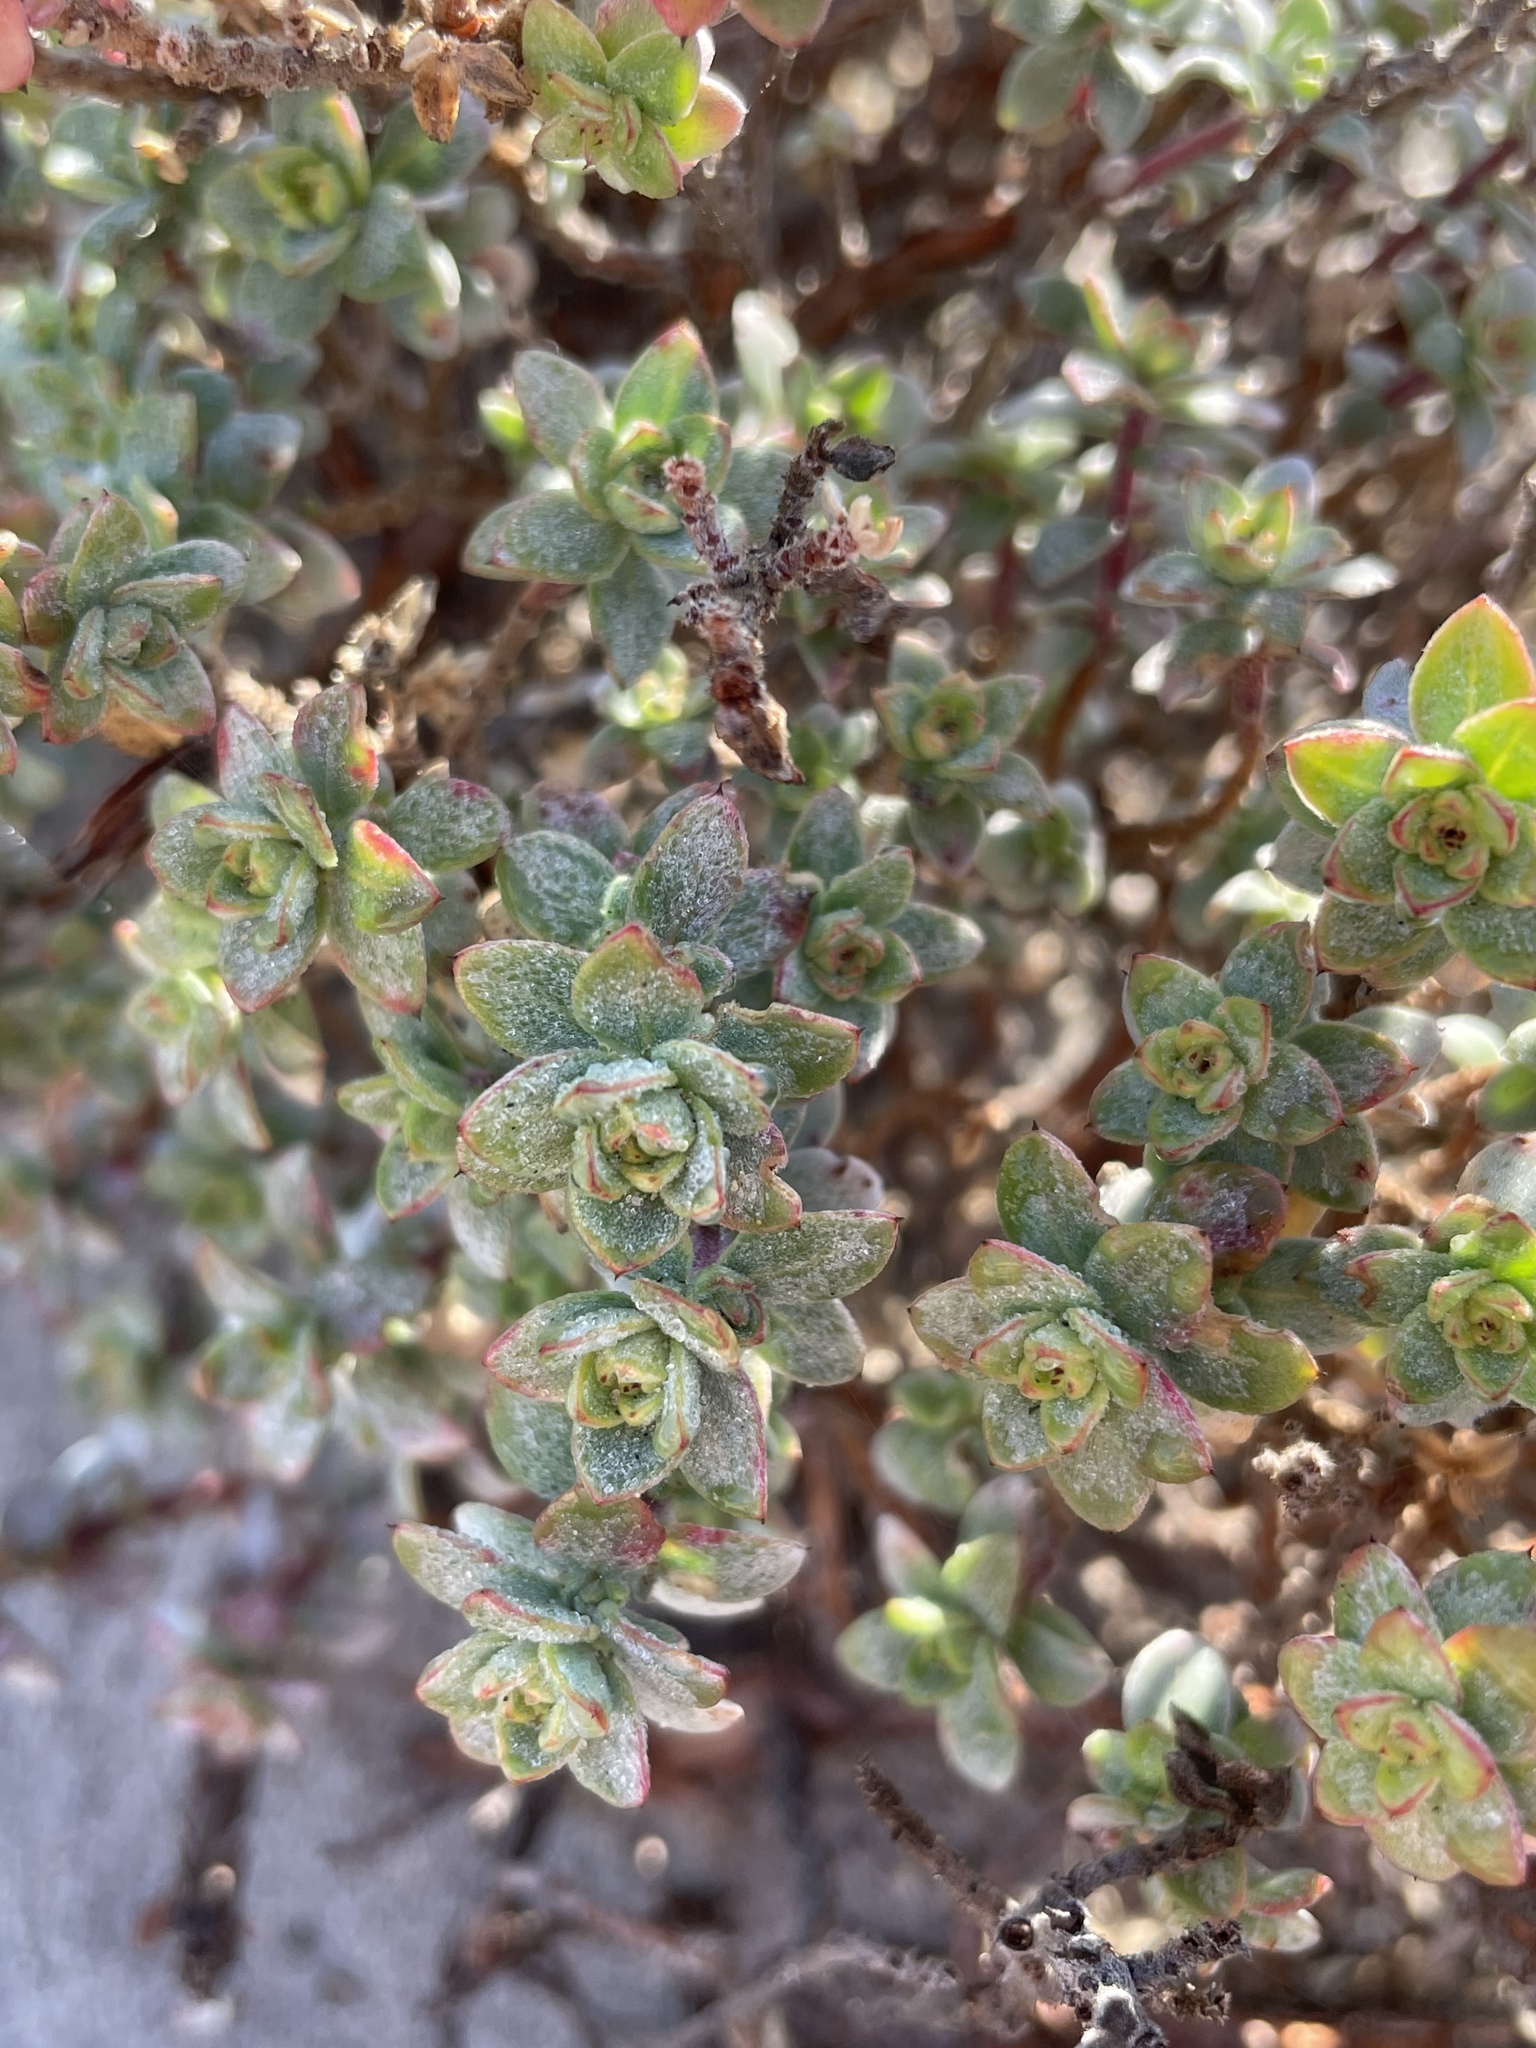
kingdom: Plantae
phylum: Tracheophyta
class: Magnoliopsida
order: Myrtales
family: Onagraceae
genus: Camissoniopsis
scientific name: Camissoniopsis cheiranthifolia
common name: Beach suncup
